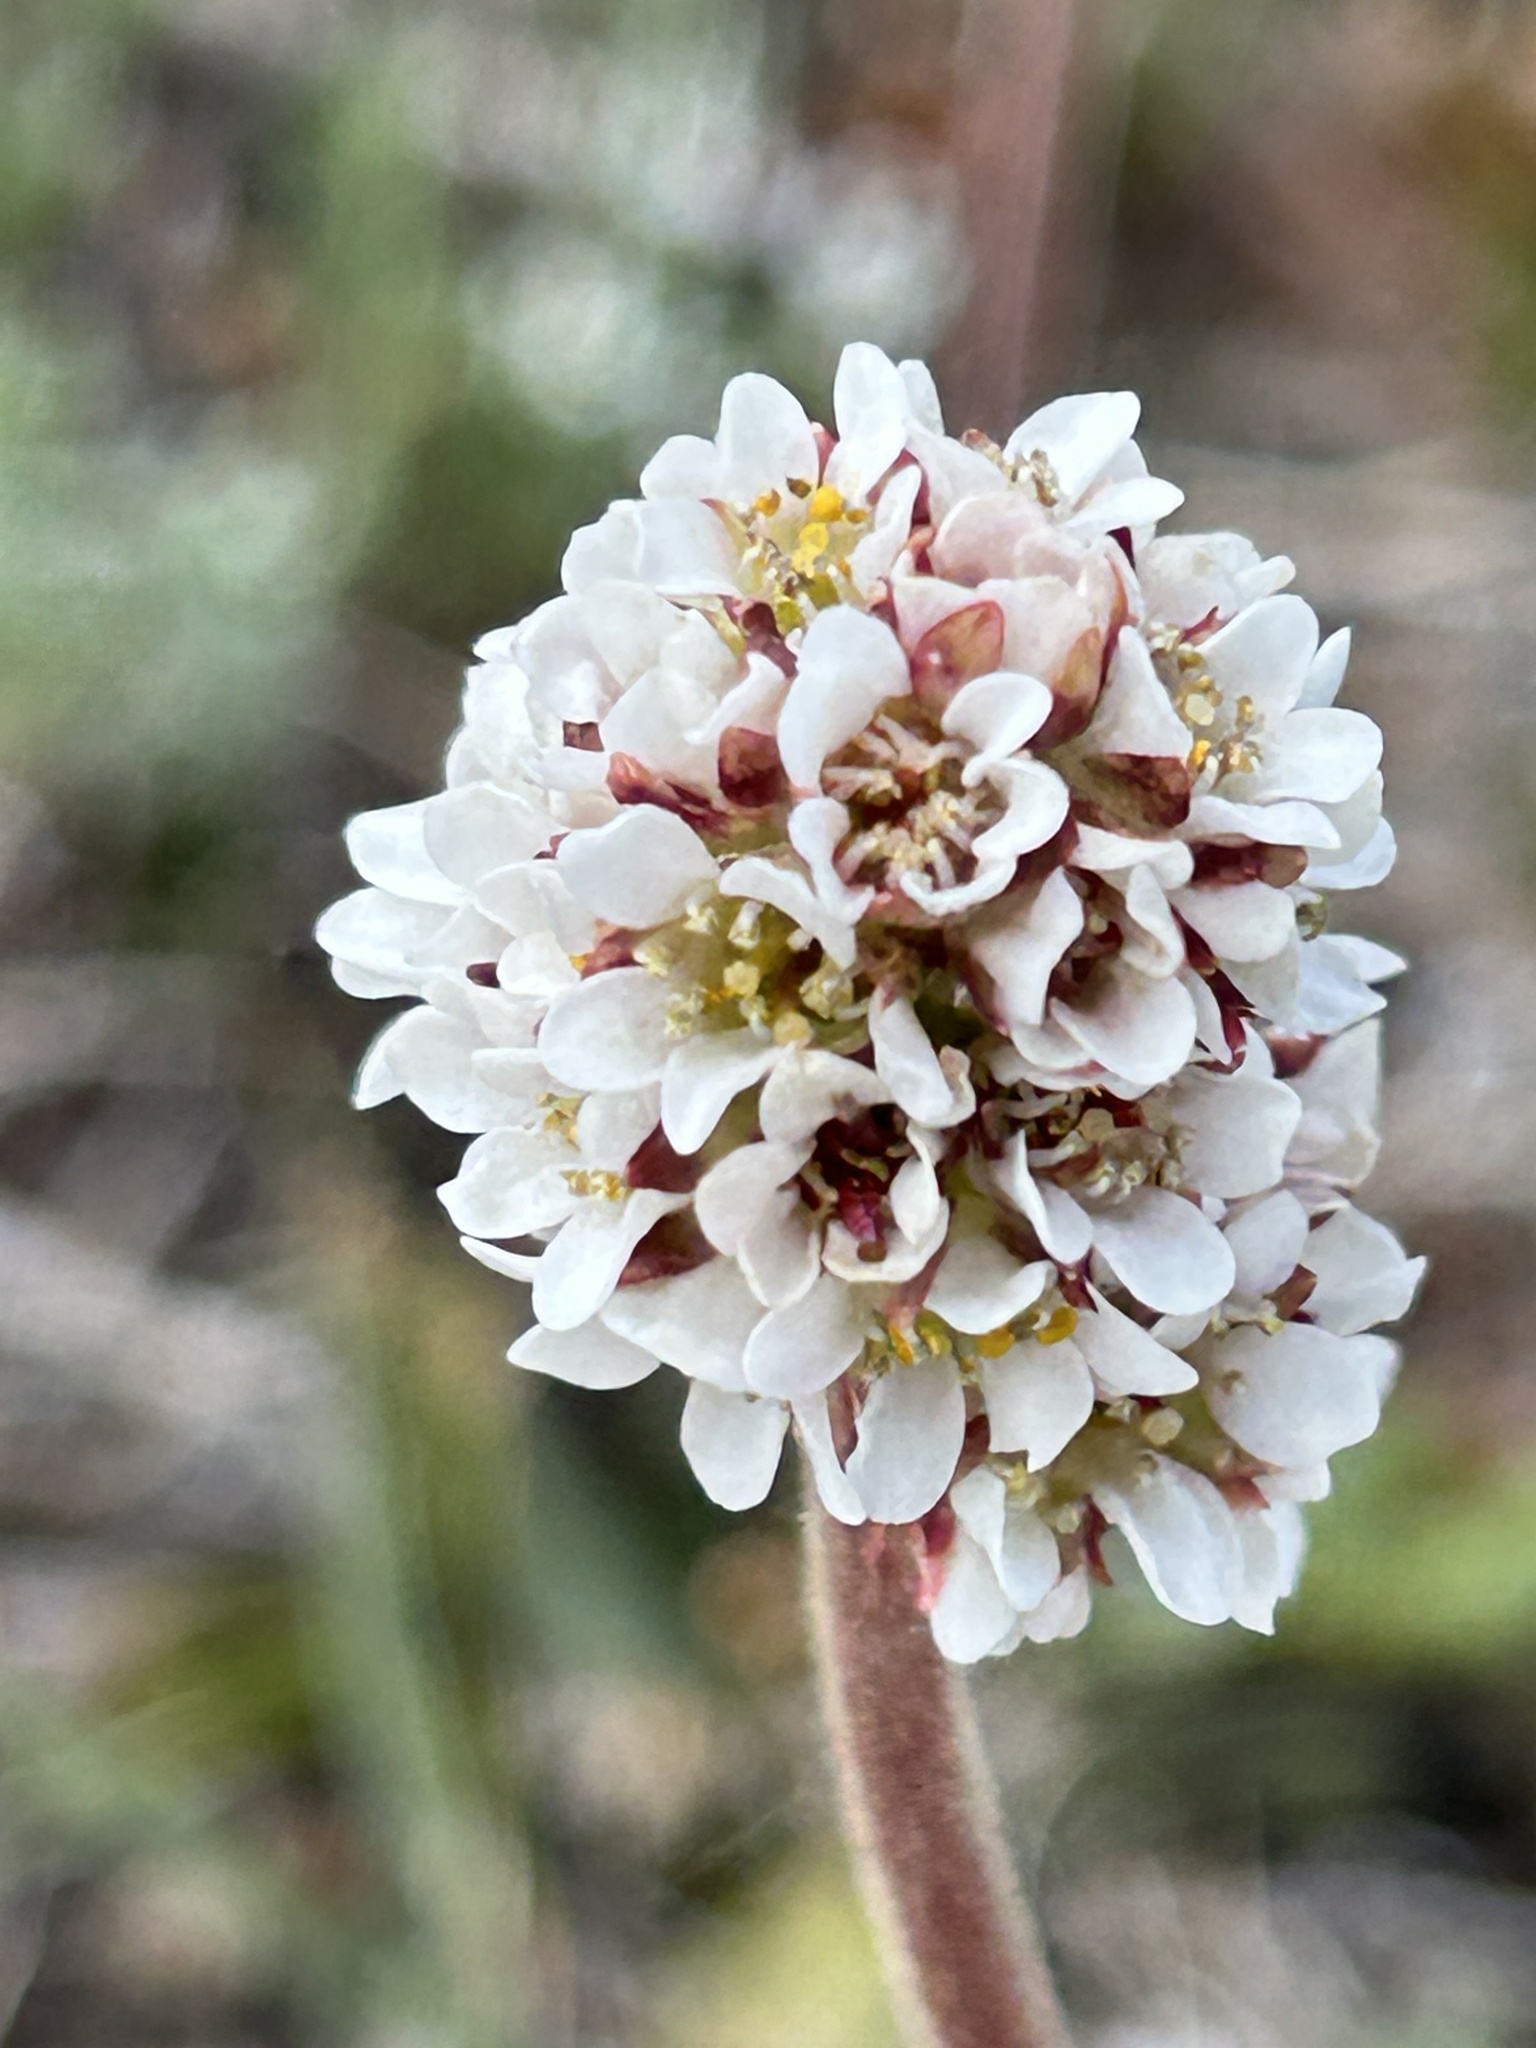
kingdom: Plantae
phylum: Tracheophyta
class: Magnoliopsida
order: Saxifragales
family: Saxifragaceae
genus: Micranthes
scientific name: Micranthes rhomboidea
